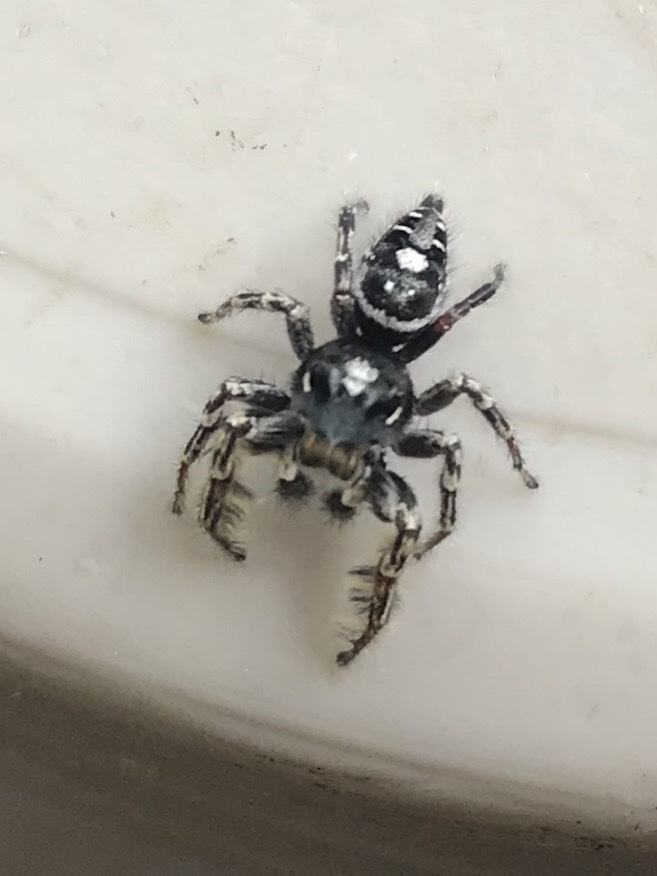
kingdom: Animalia
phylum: Arthropoda
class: Arachnida
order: Araneae
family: Salticidae
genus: Phidippus
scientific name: Phidippus putnami
